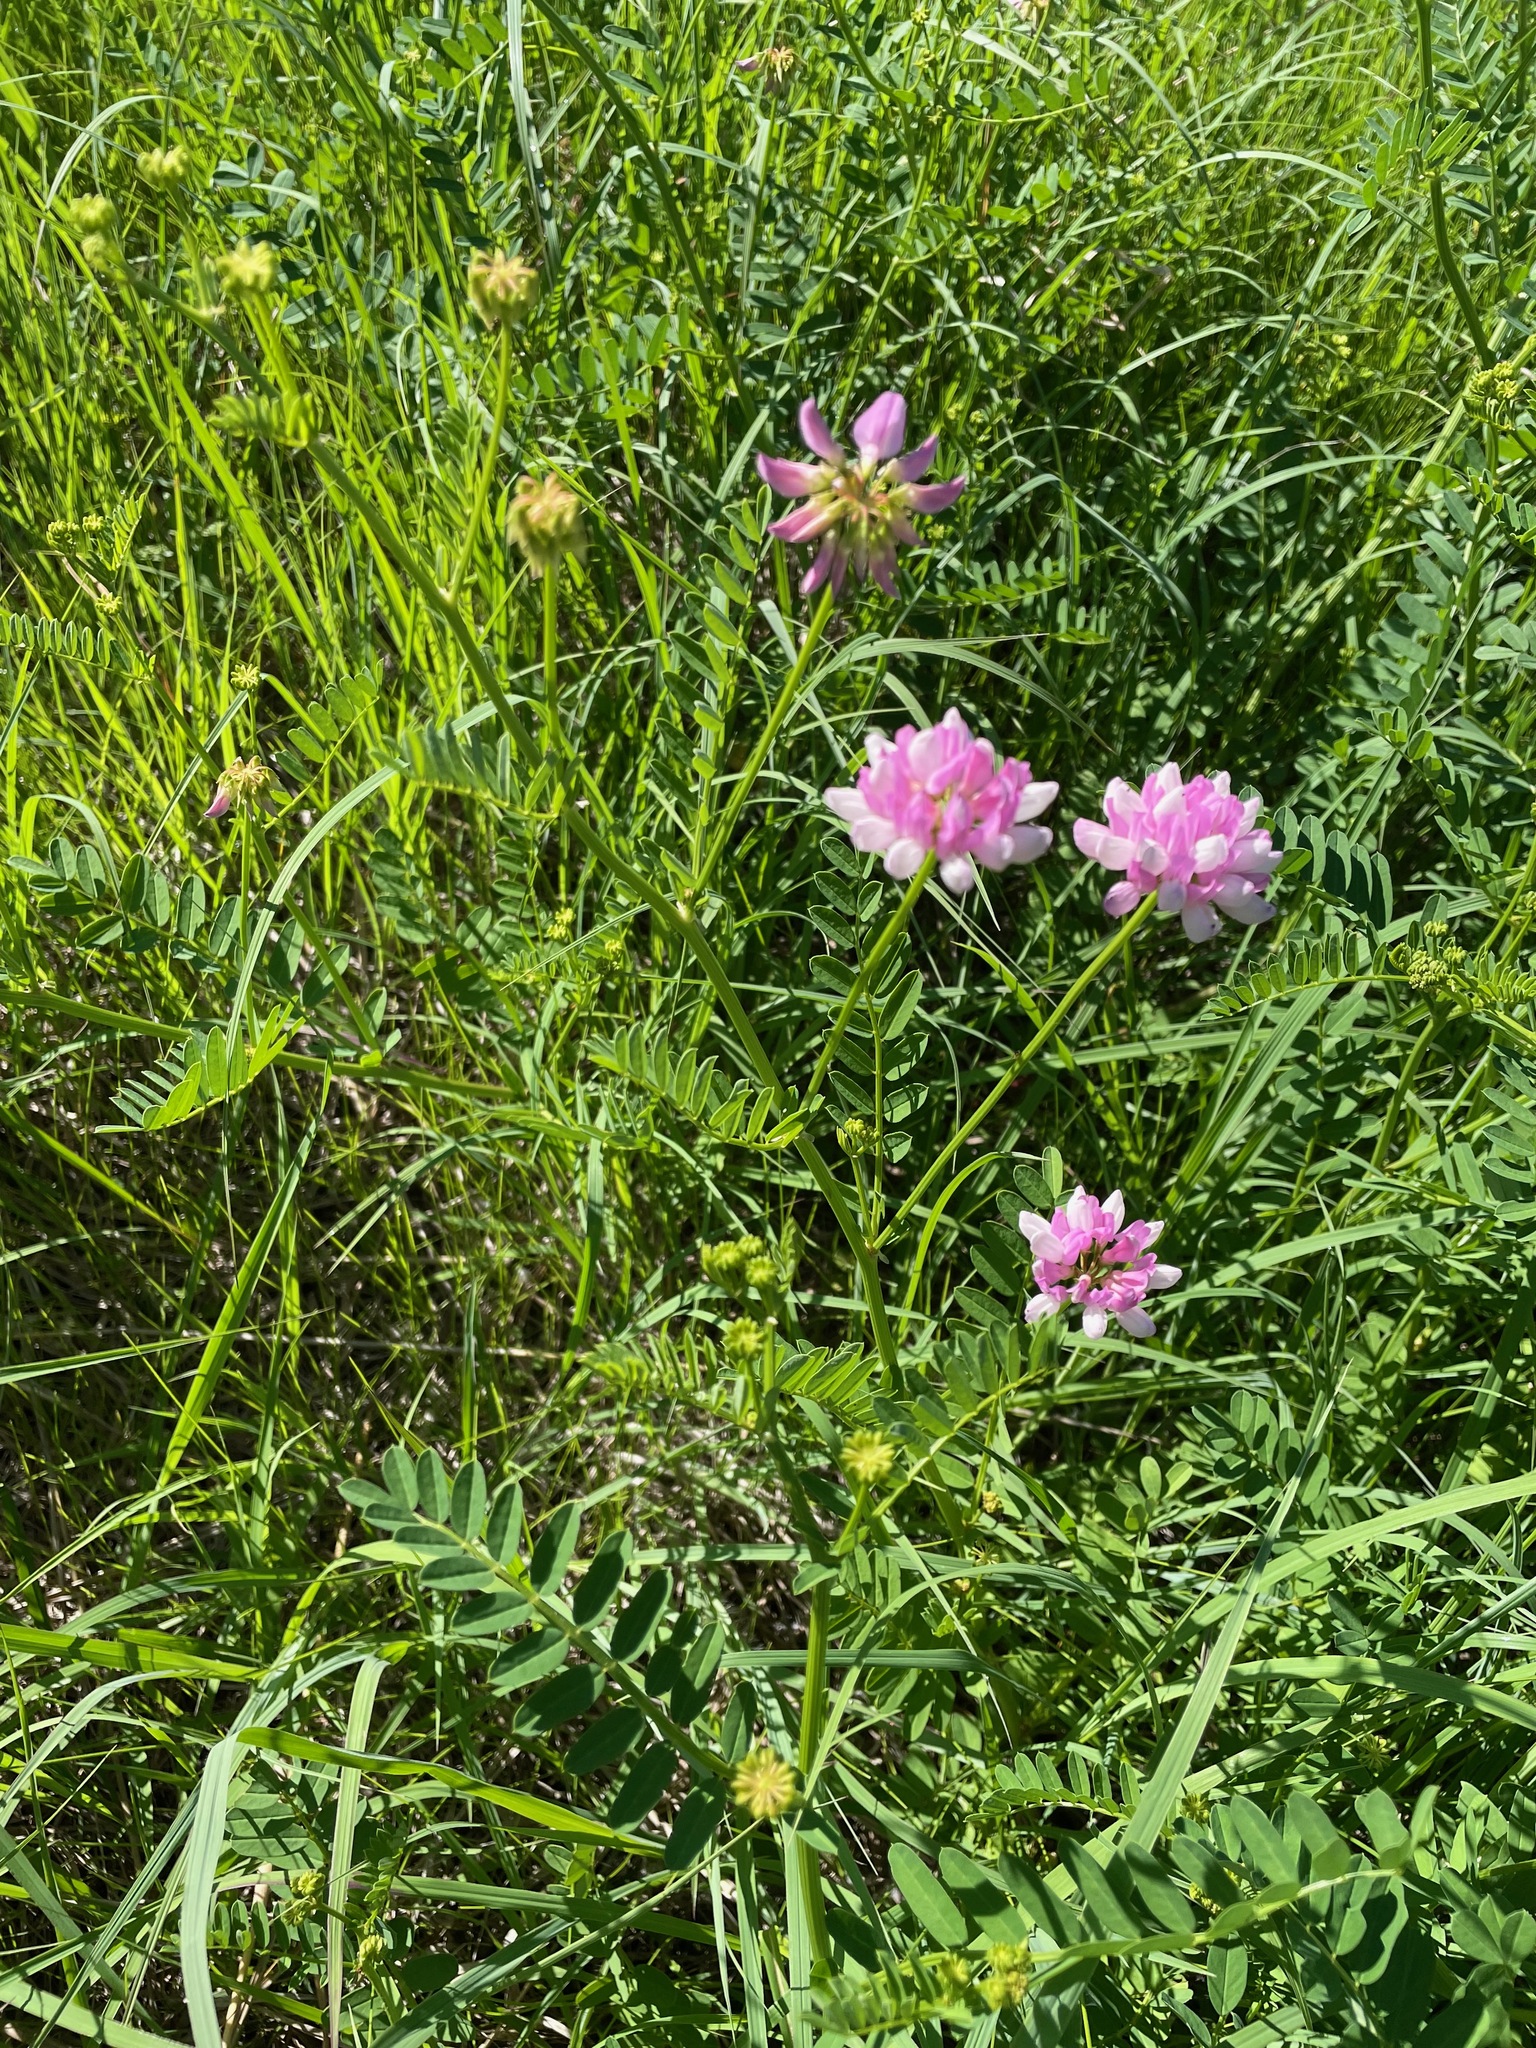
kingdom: Plantae
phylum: Tracheophyta
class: Magnoliopsida
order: Fabales
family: Fabaceae
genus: Coronilla
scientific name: Coronilla varia
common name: Crownvetch
